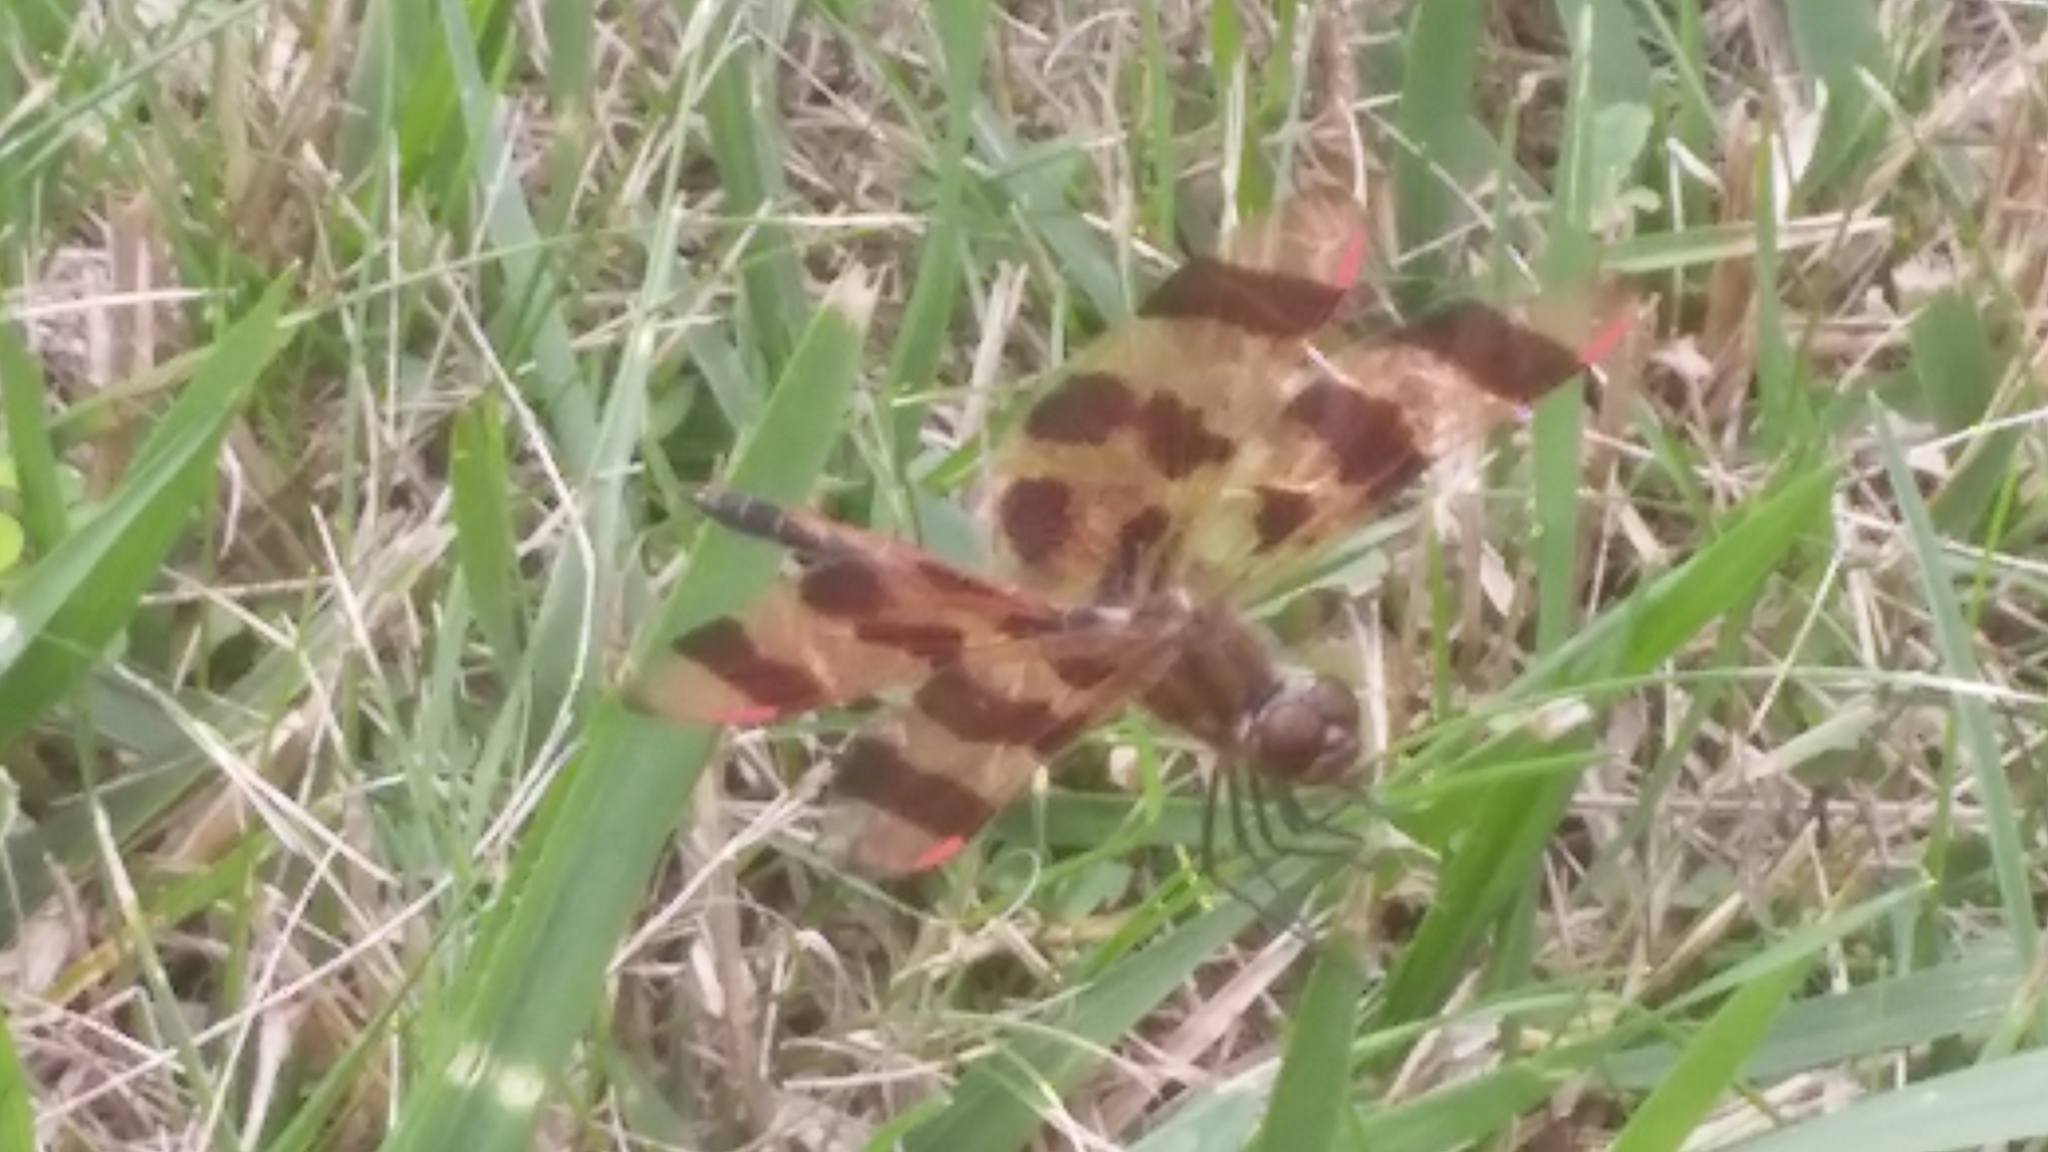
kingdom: Animalia
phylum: Arthropoda
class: Insecta
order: Odonata
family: Libellulidae
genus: Celithemis
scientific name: Celithemis eponina
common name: Halloween pennant
